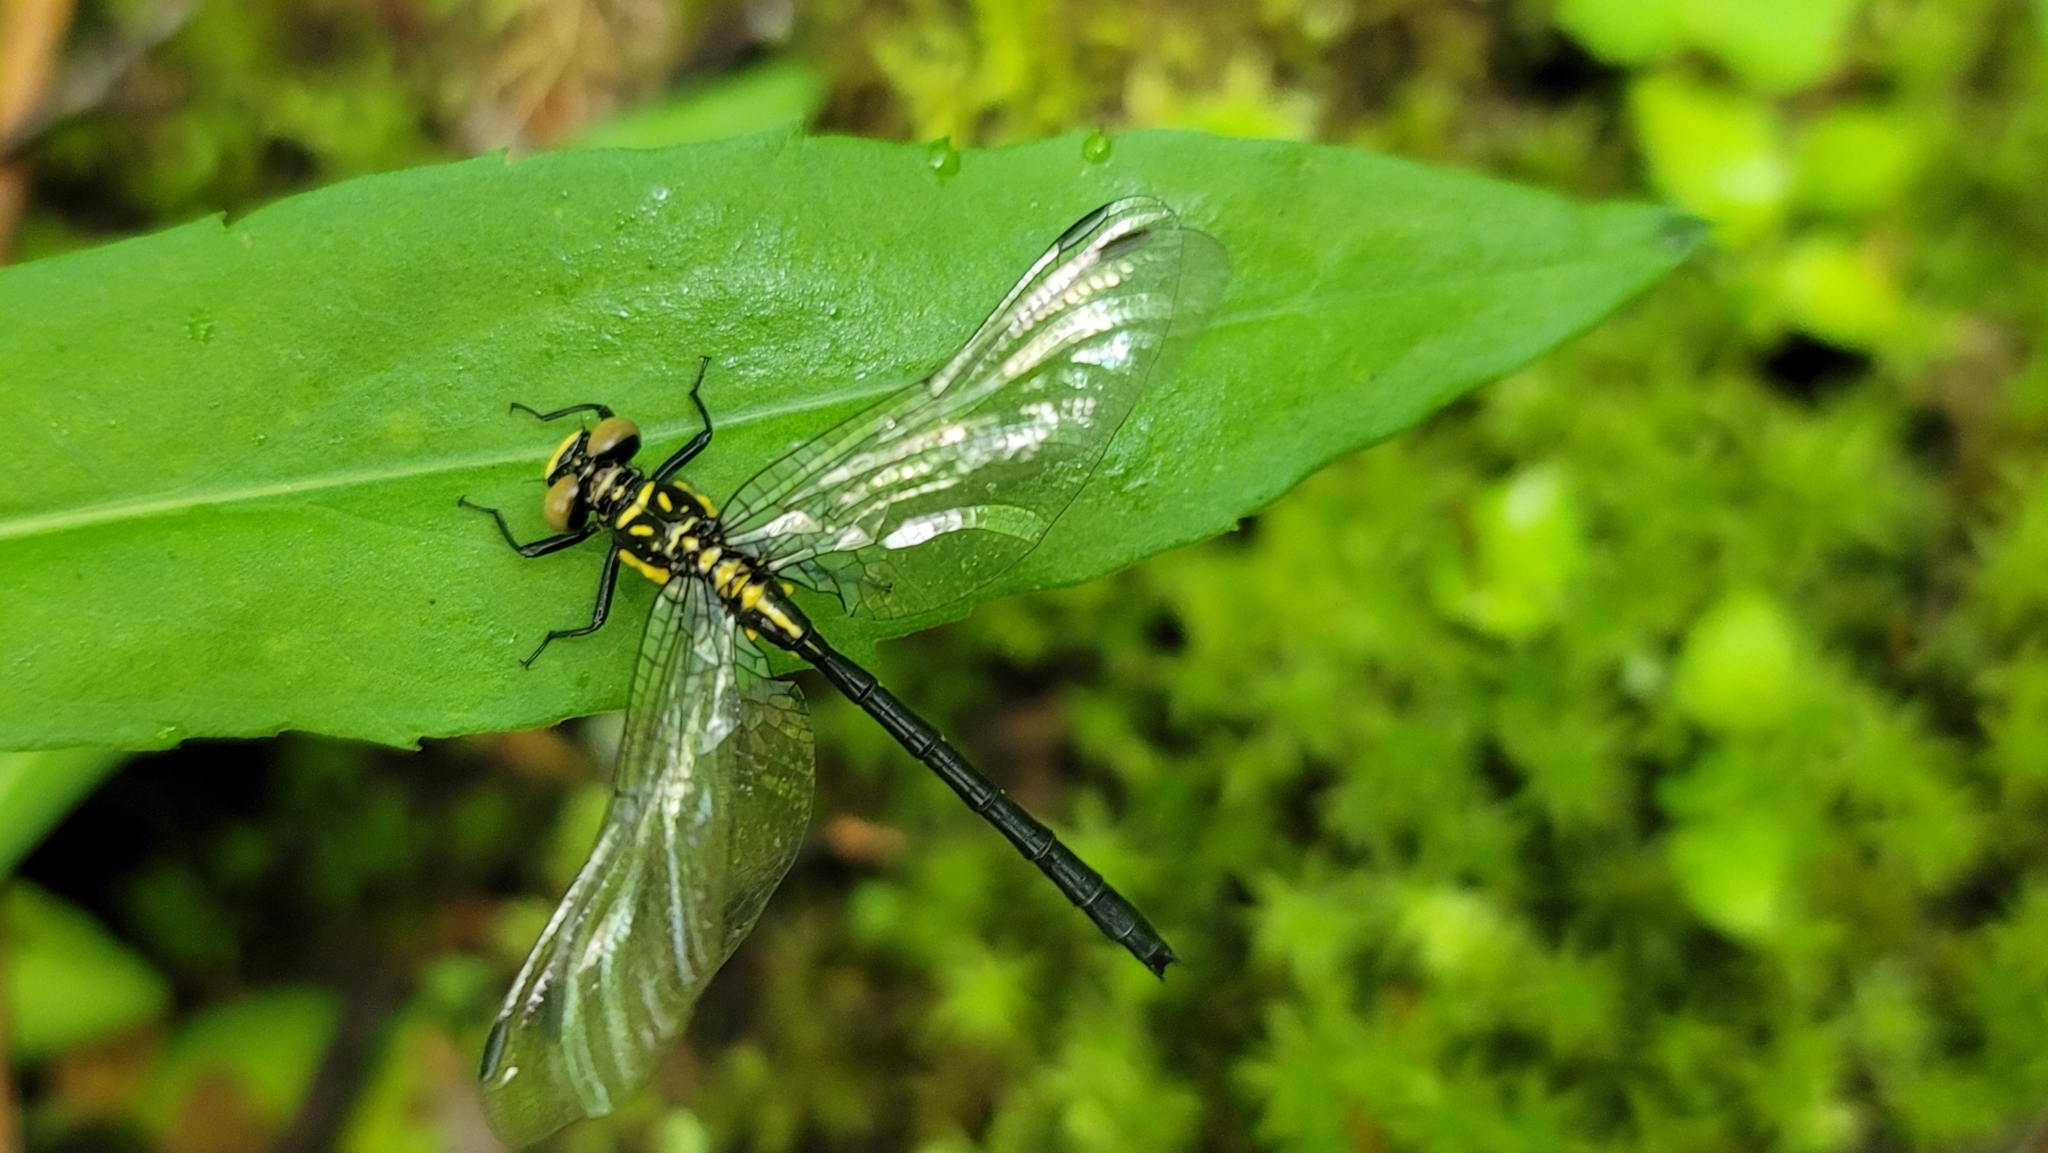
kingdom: Animalia
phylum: Arthropoda
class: Insecta
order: Odonata
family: Gomphidae
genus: Lanthus
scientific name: Lanthus vernalis
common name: Southern pygmy clubtail
